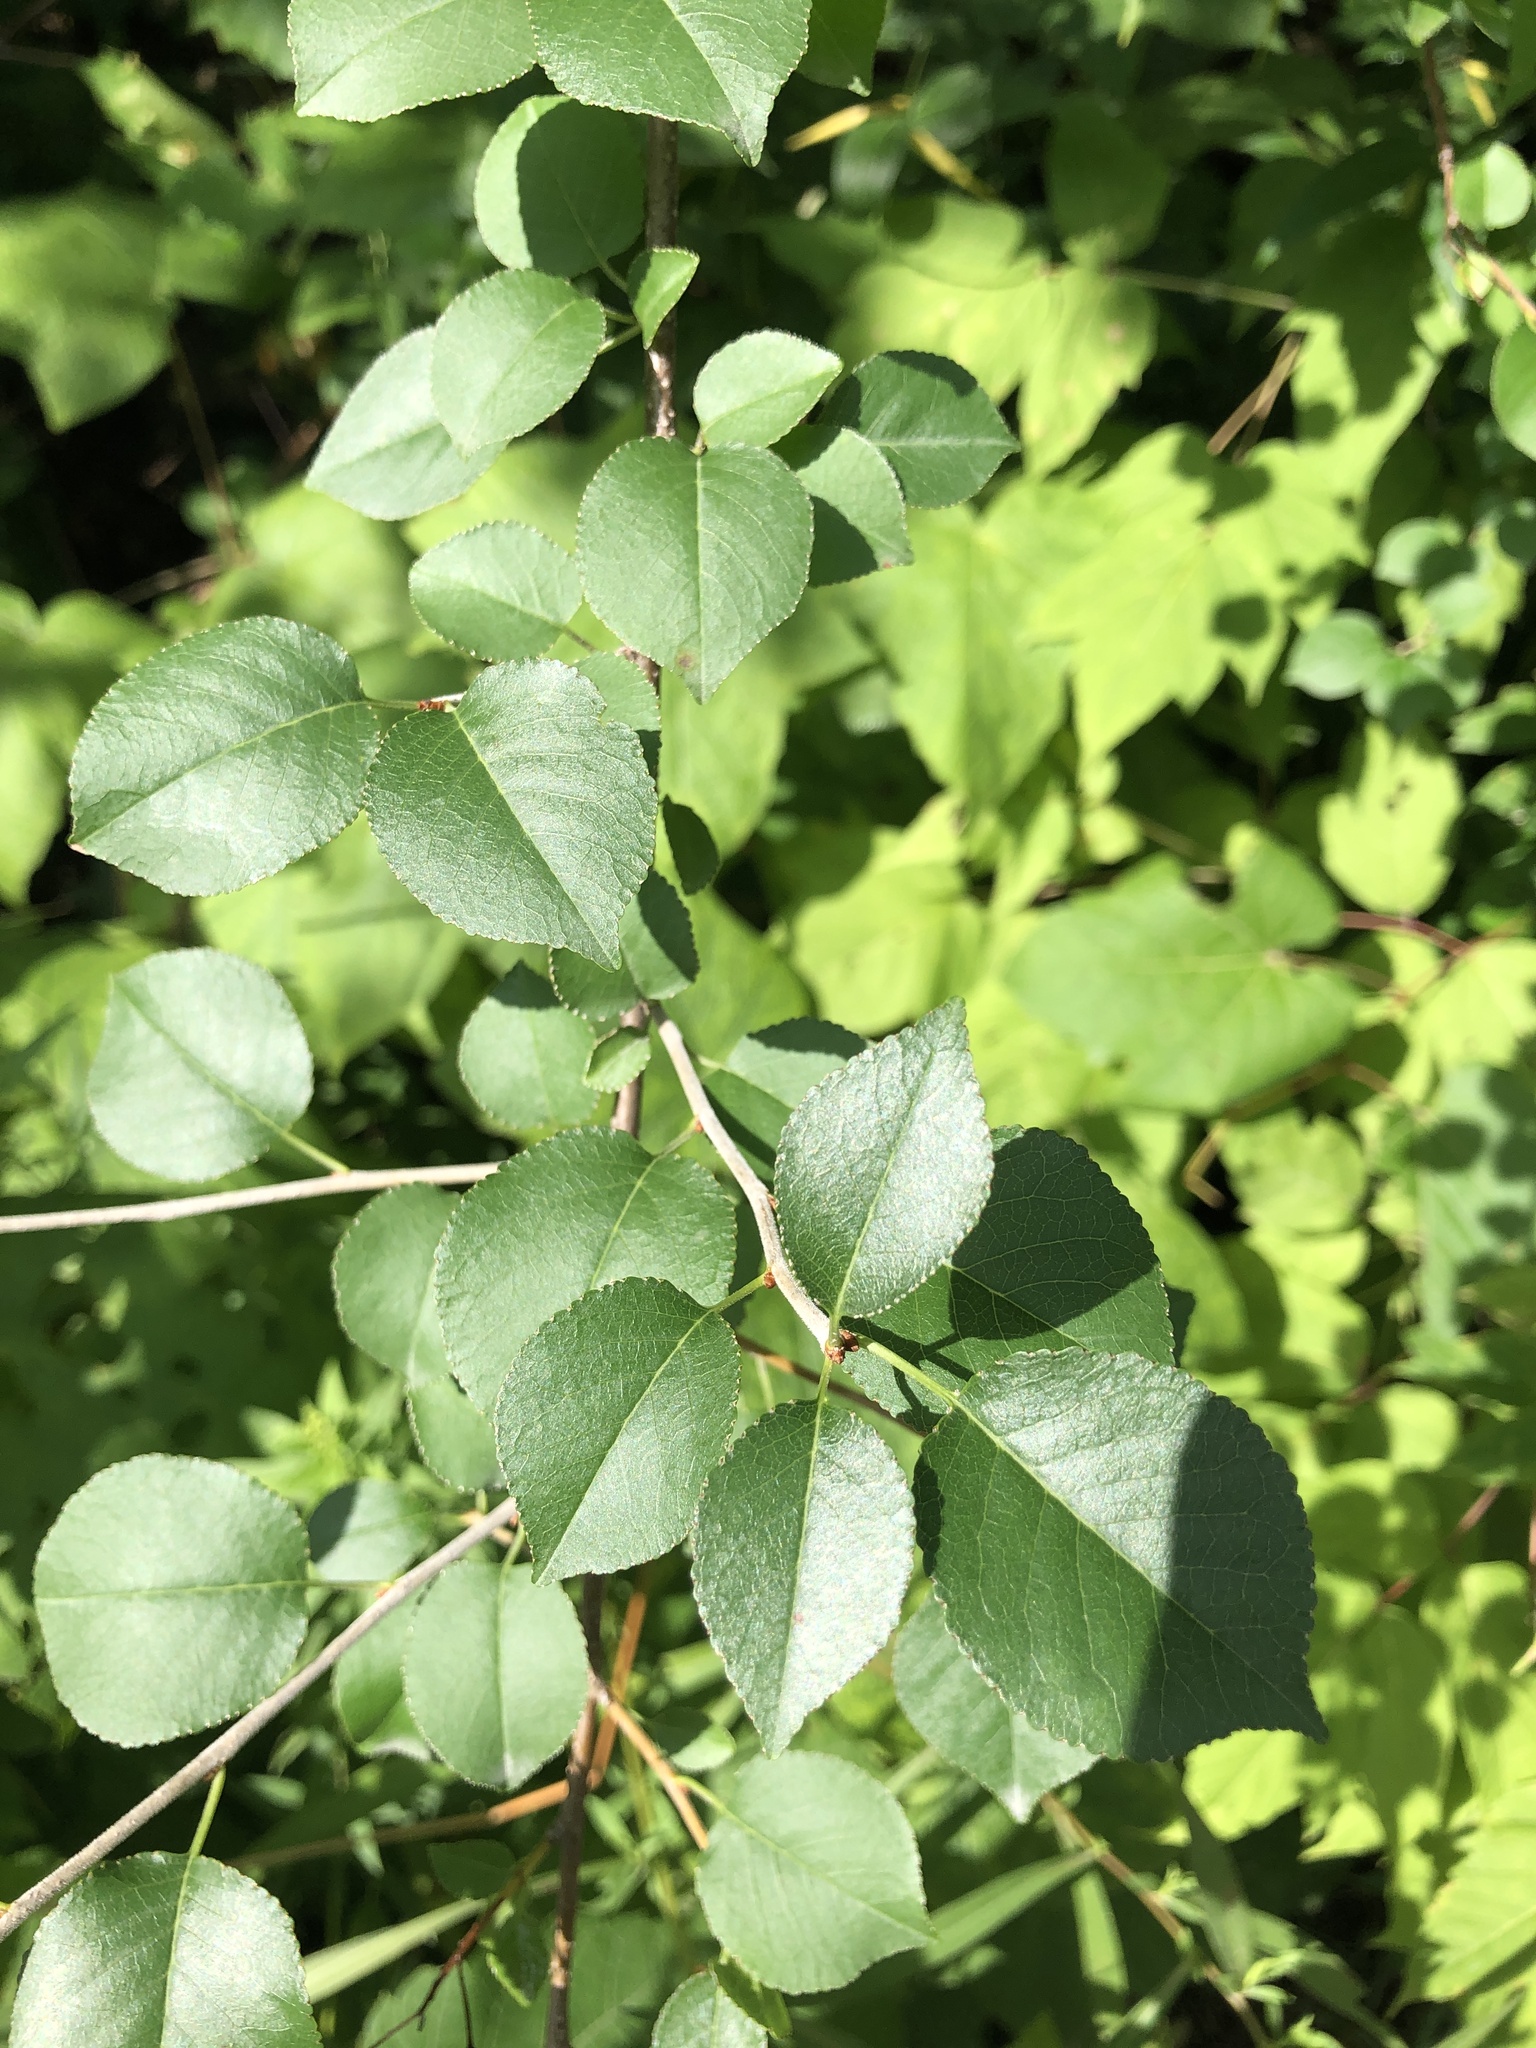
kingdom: Plantae
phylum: Tracheophyta
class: Magnoliopsida
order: Rosales
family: Rosaceae
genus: Prunus
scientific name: Prunus mahaleb
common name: Mahaleb cherry
